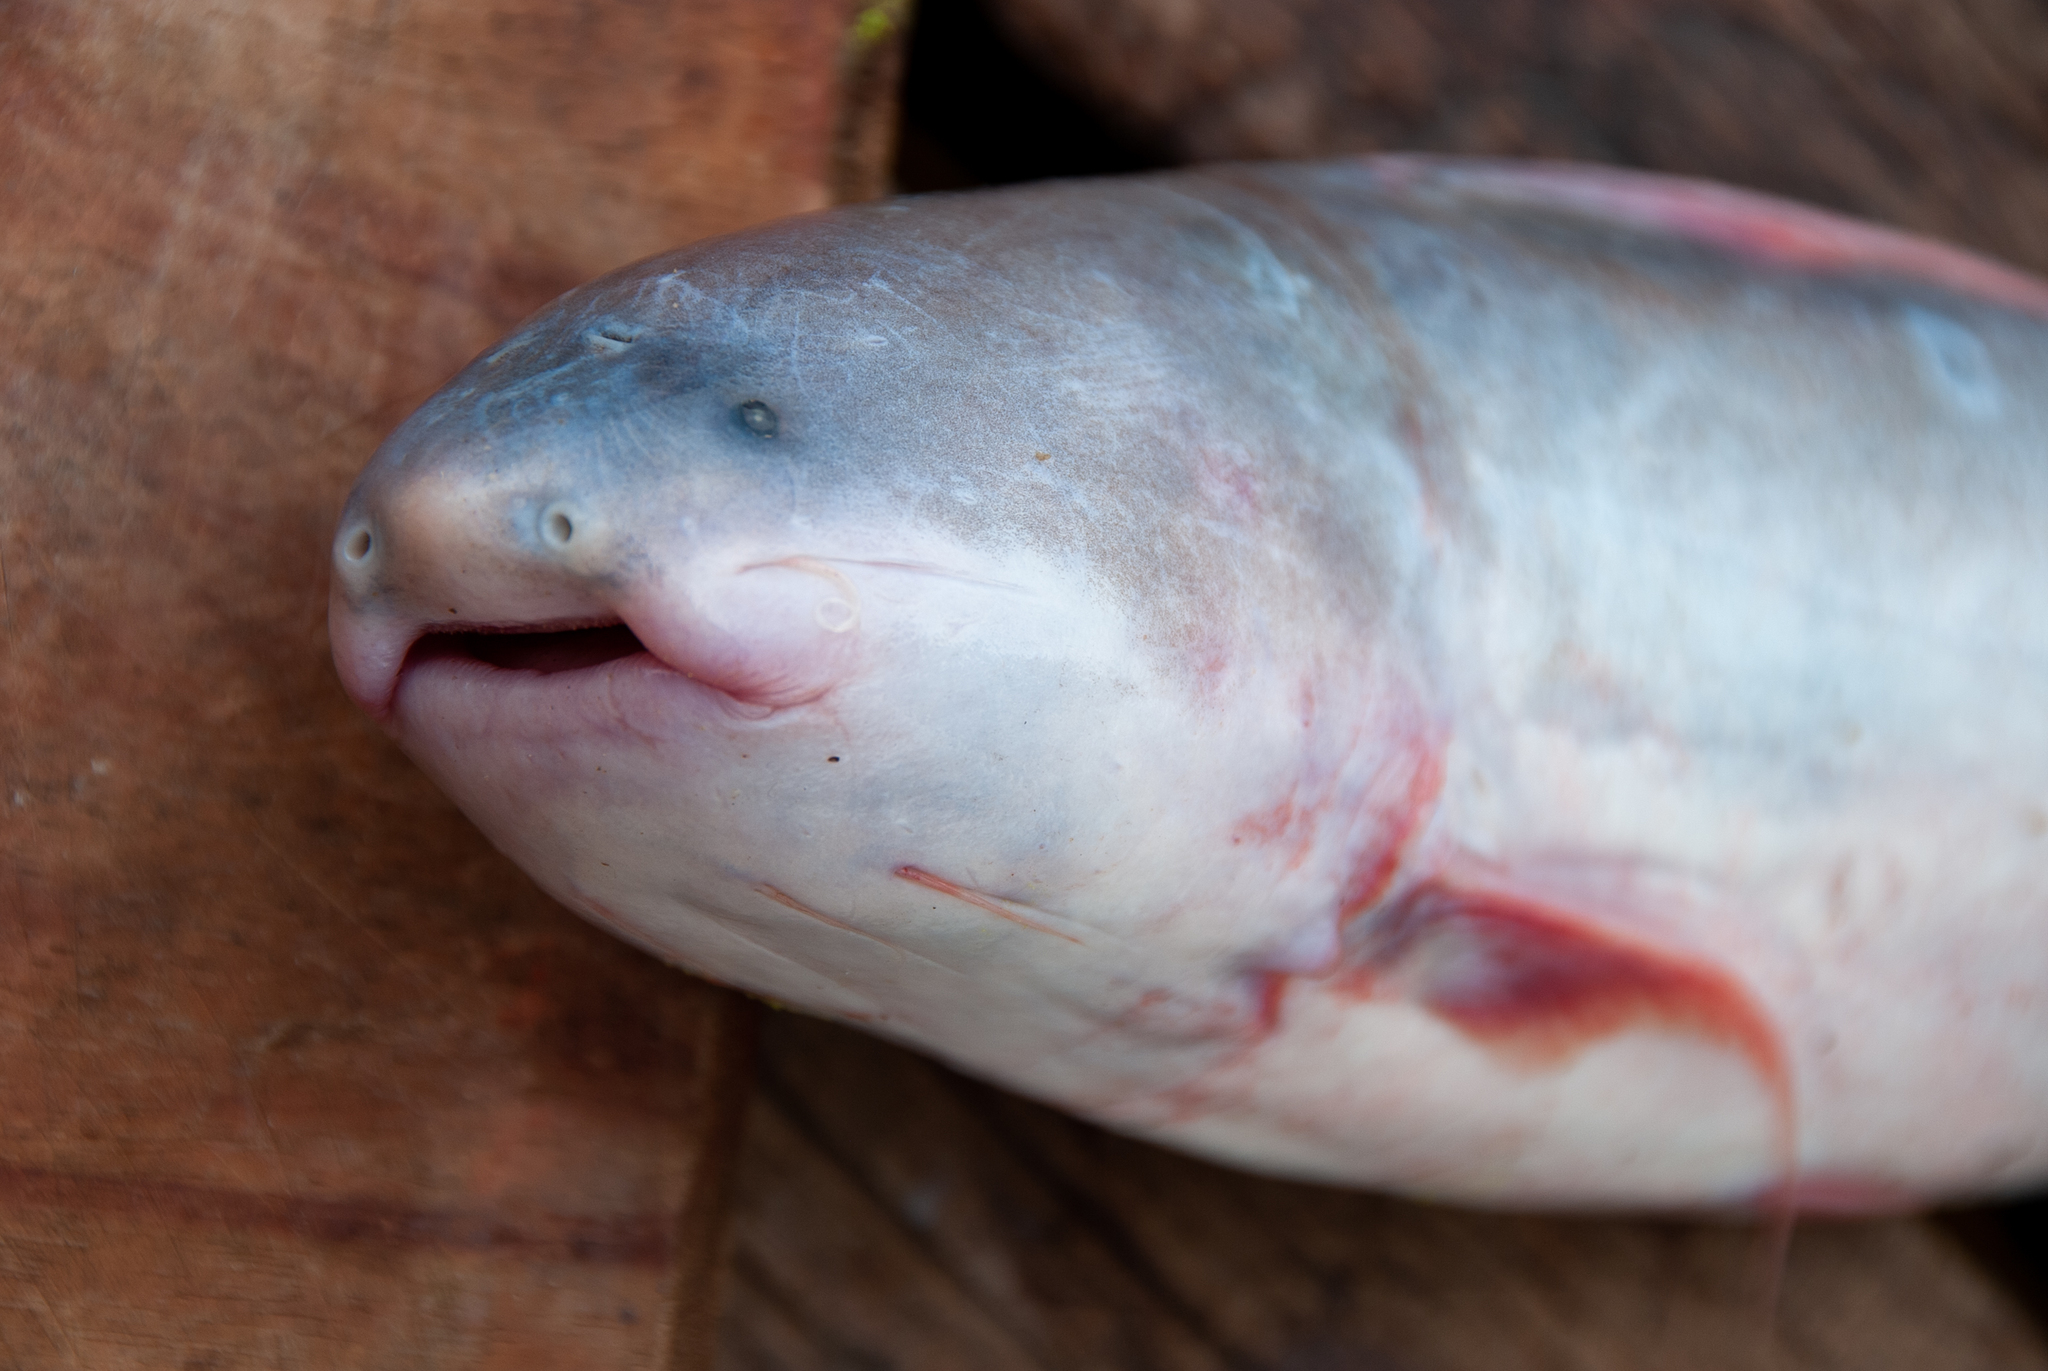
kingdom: Animalia
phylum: Chordata
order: Siluriformes
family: Cetopsidae
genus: Cetopsis
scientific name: Cetopsis coecutiens
